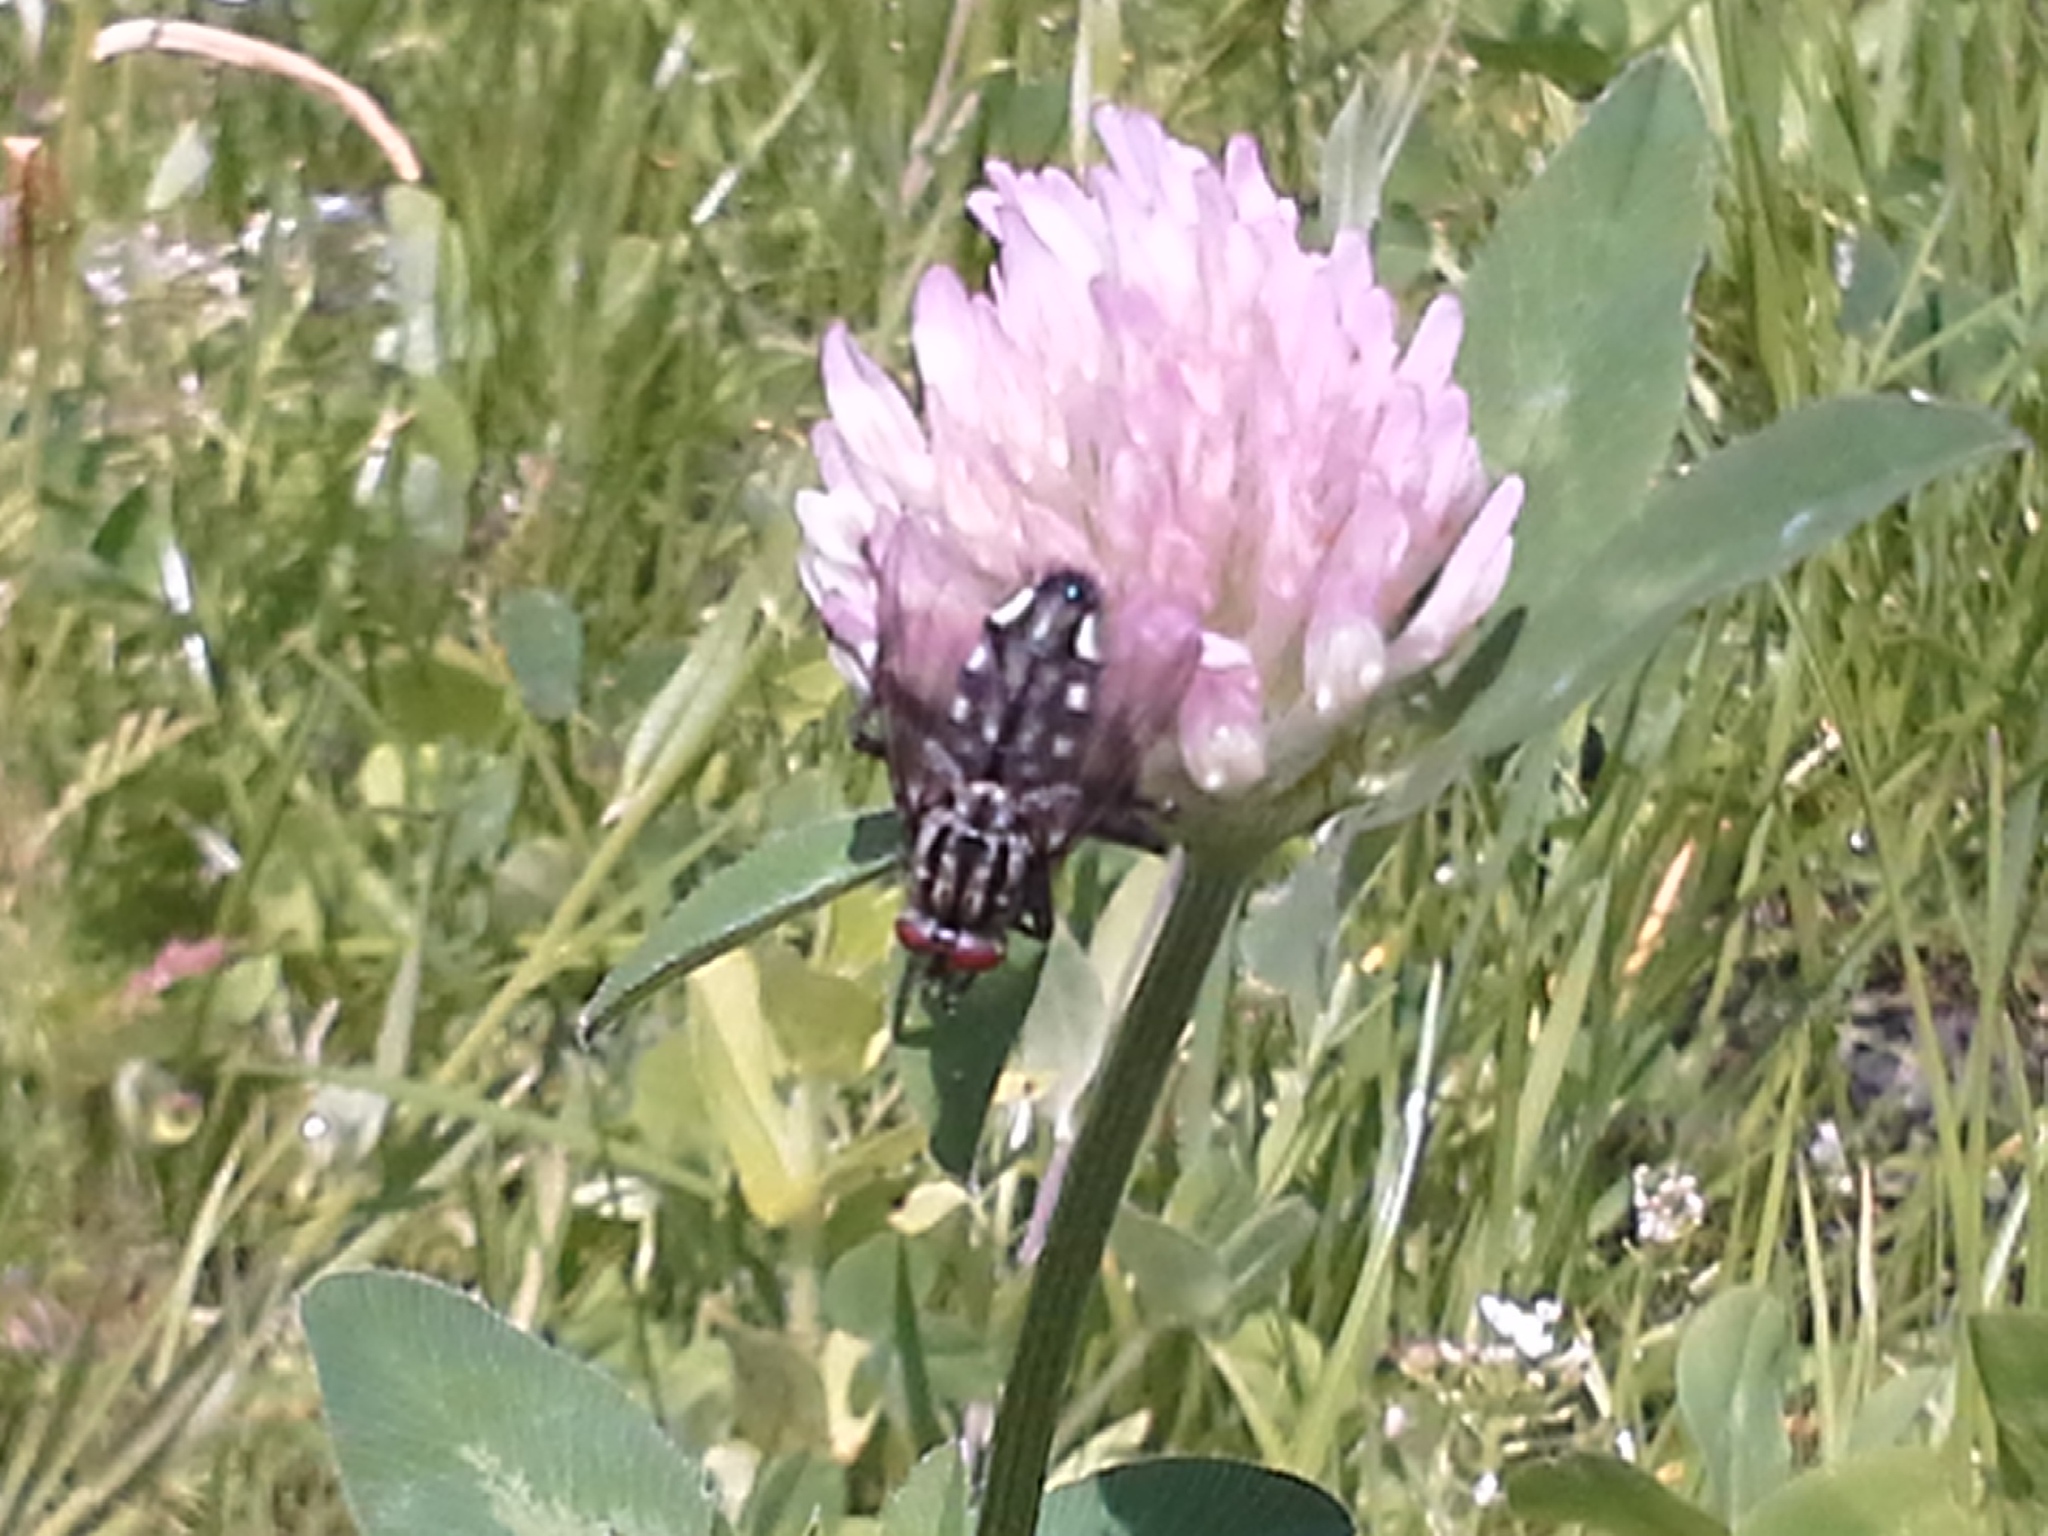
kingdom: Plantae
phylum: Tracheophyta
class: Magnoliopsida
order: Fabales
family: Fabaceae
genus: Trifolium
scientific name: Trifolium pratense
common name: Red clover
